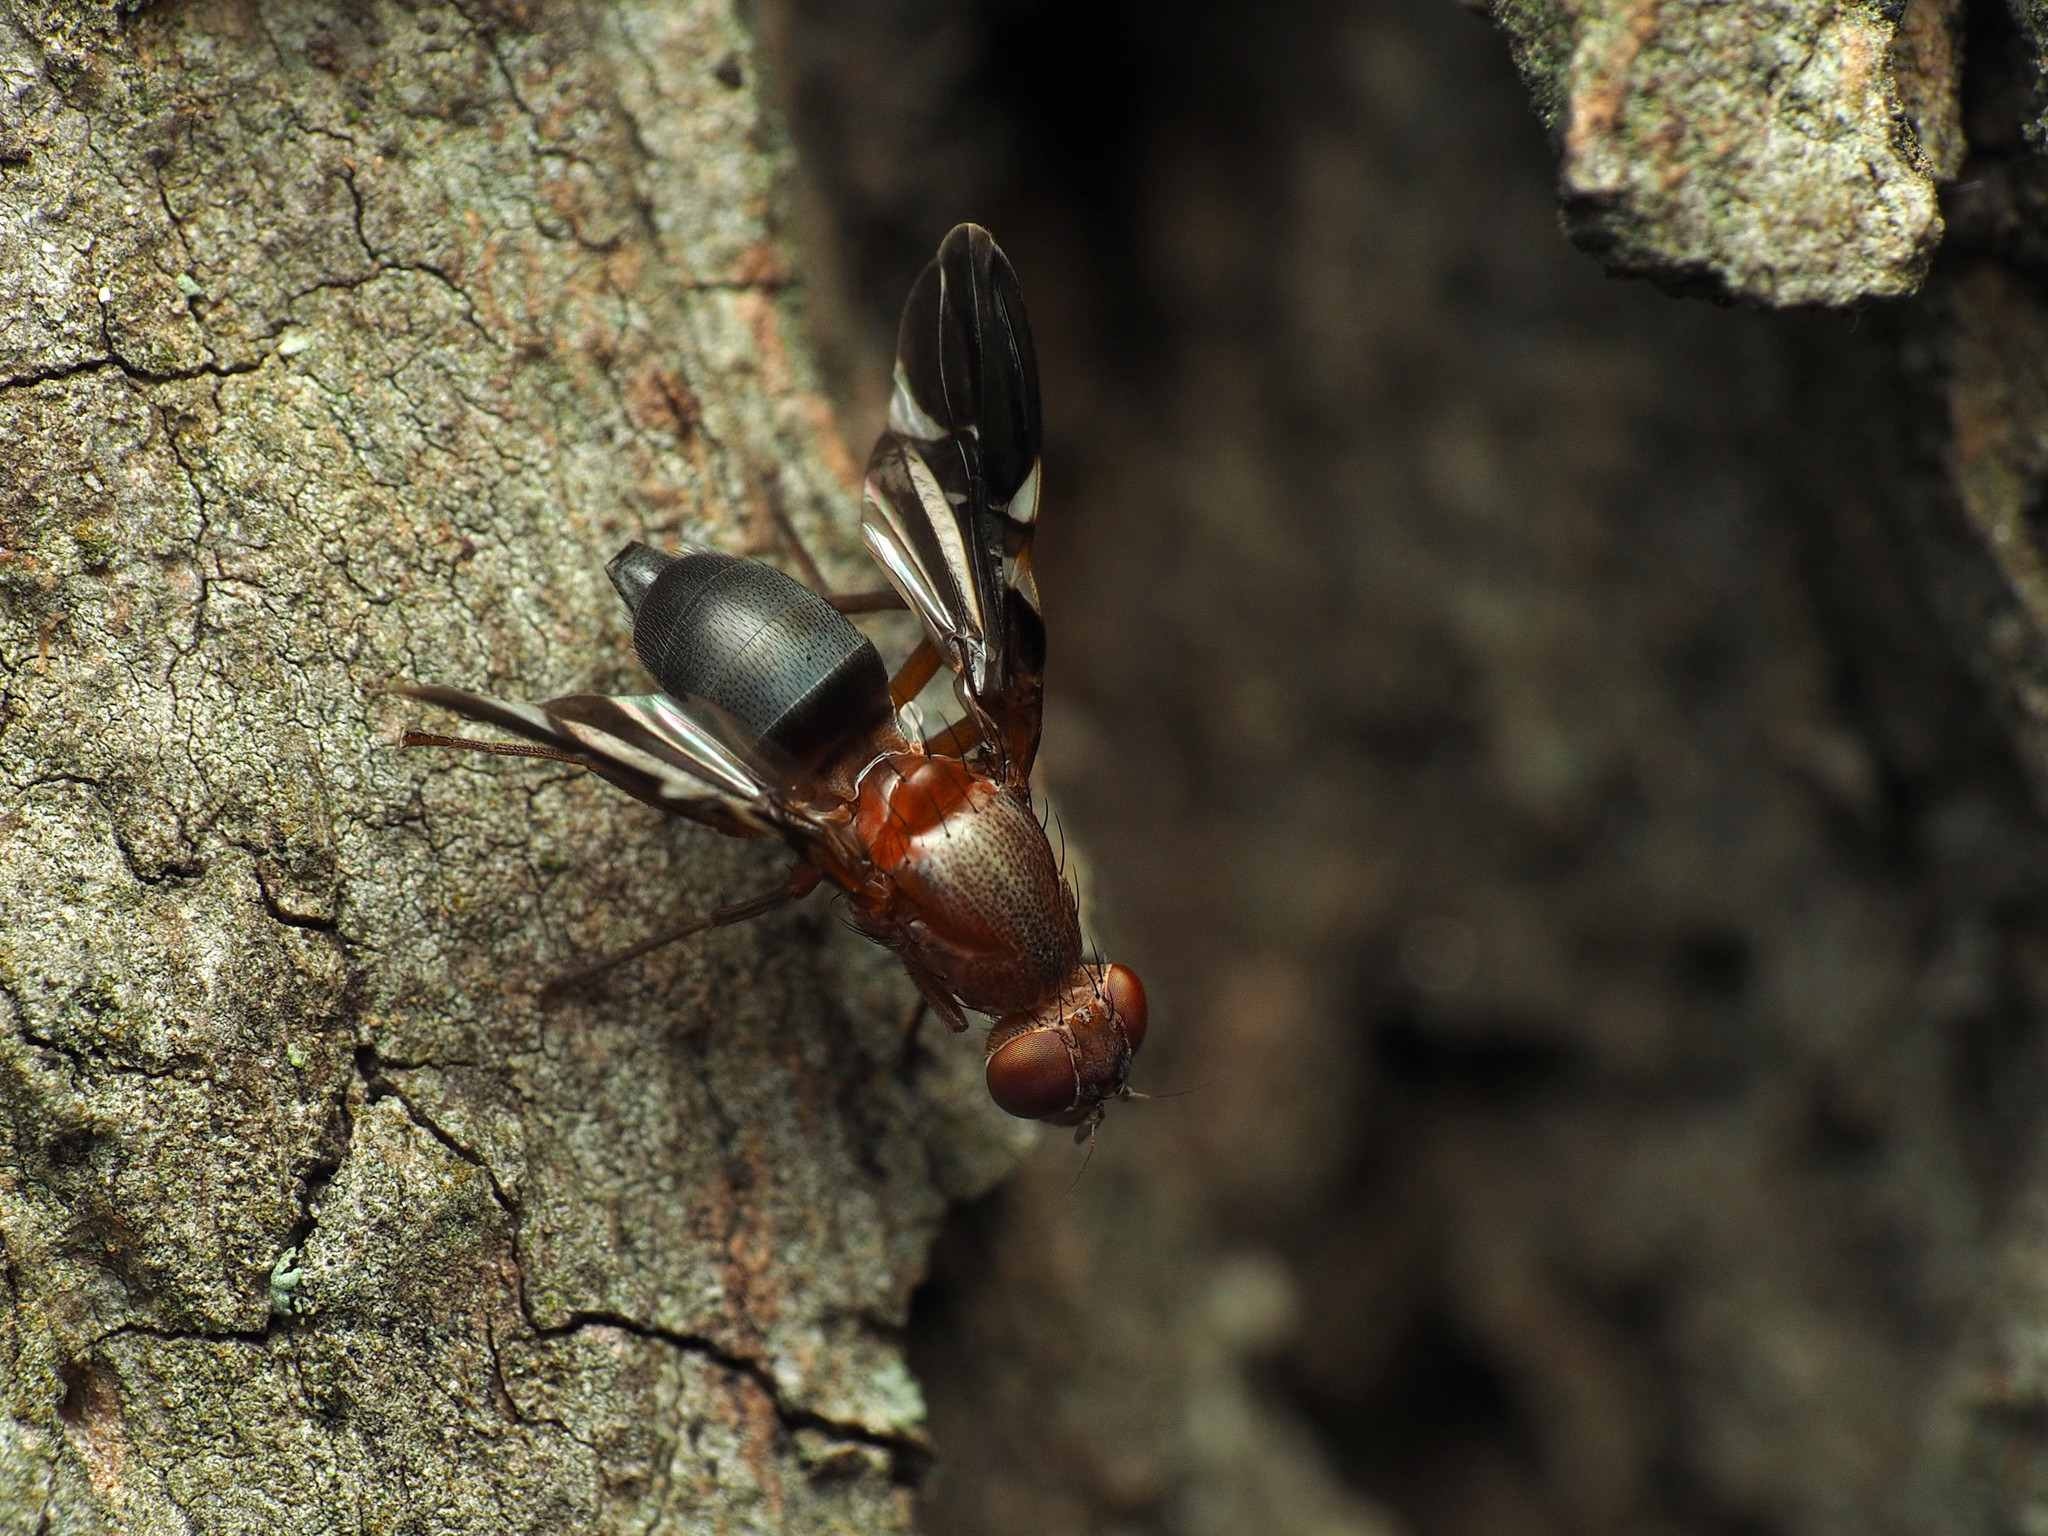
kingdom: Animalia
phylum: Arthropoda
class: Insecta
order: Diptera
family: Ulidiidae
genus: Delphinia
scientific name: Delphinia picta
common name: Common picture-winged fly
